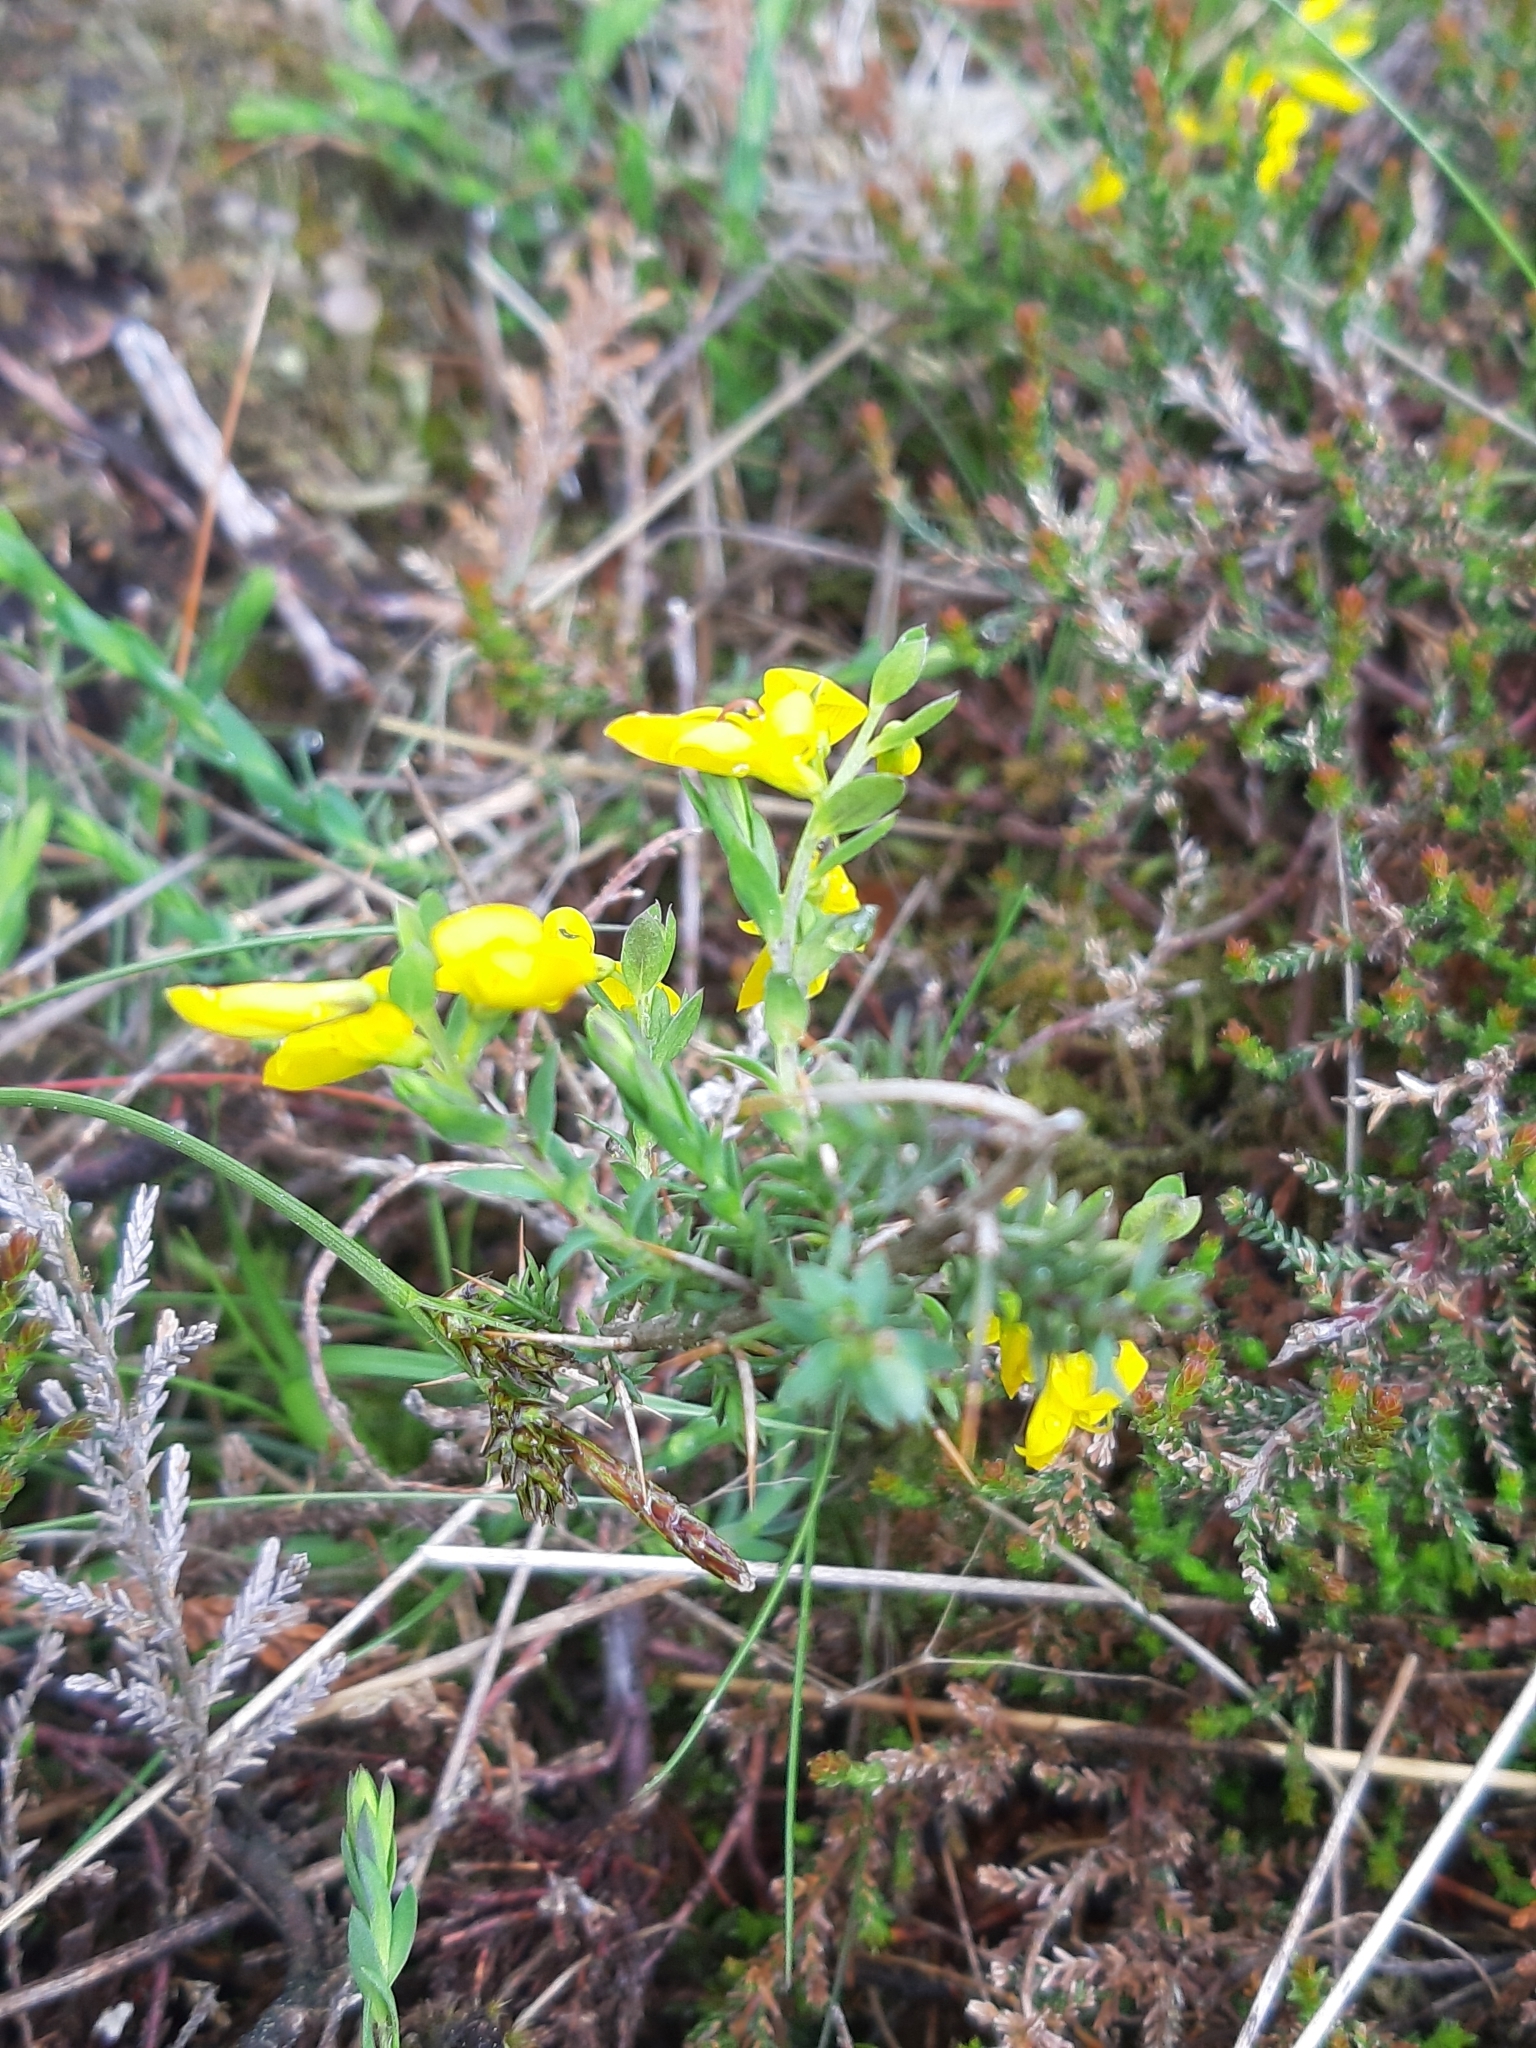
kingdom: Plantae
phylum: Tracheophyta
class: Magnoliopsida
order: Fabales
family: Fabaceae
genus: Genista
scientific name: Genista anglica
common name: Petty whin
